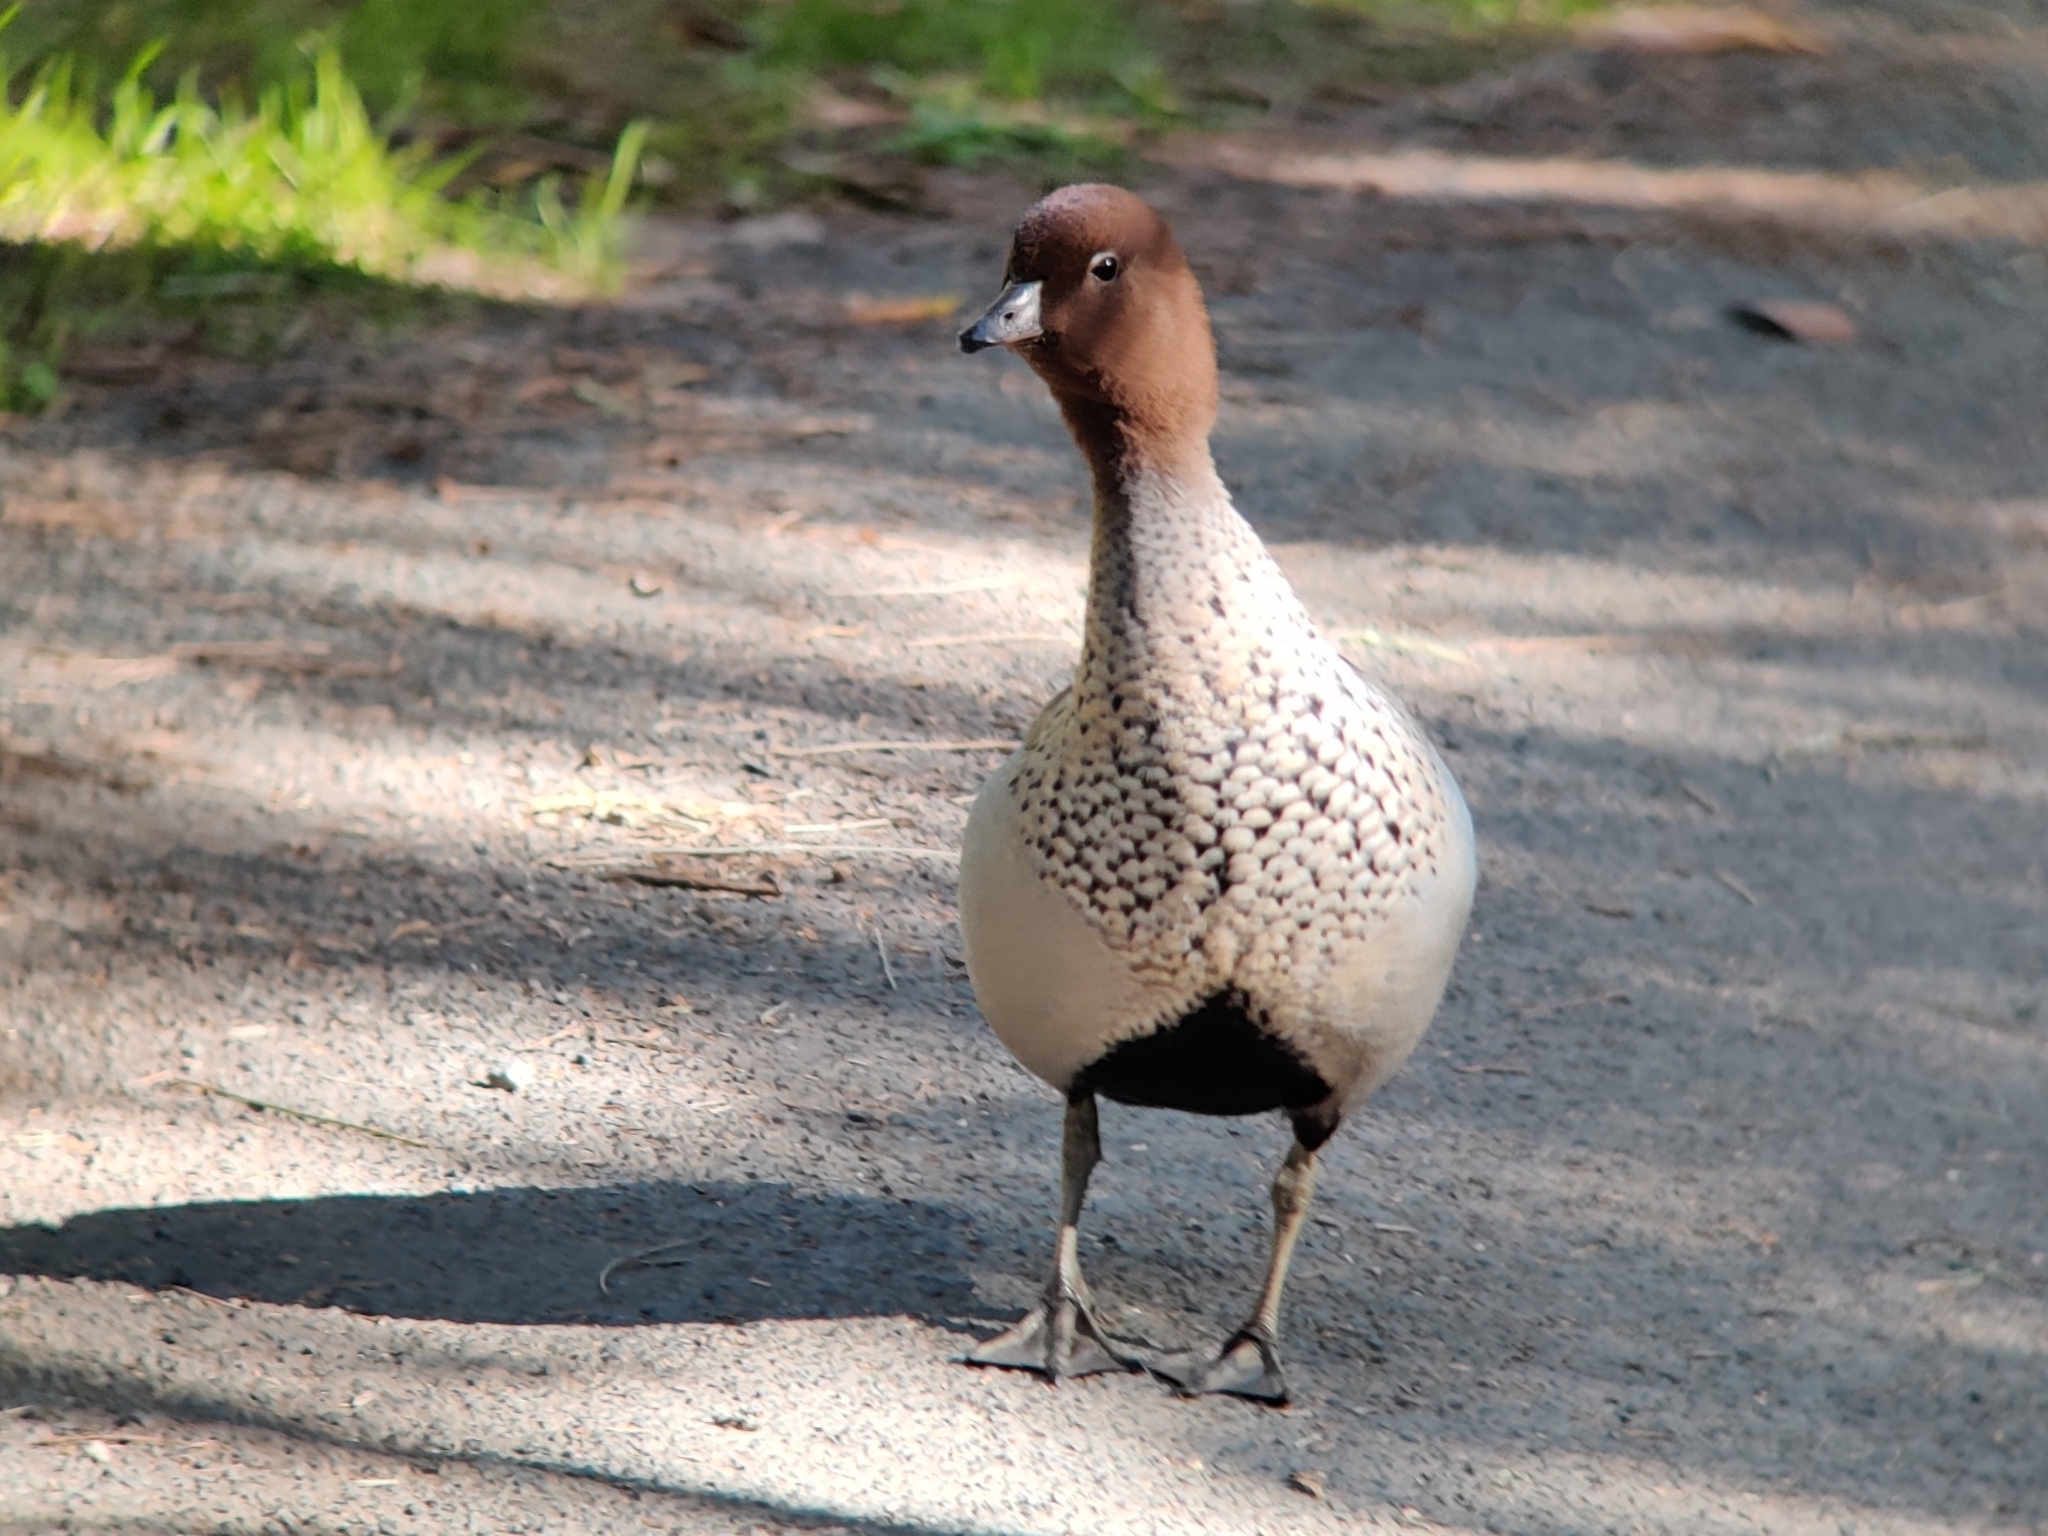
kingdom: Animalia
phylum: Chordata
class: Aves
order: Anseriformes
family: Anatidae
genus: Chenonetta
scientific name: Chenonetta jubata
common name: Maned duck
